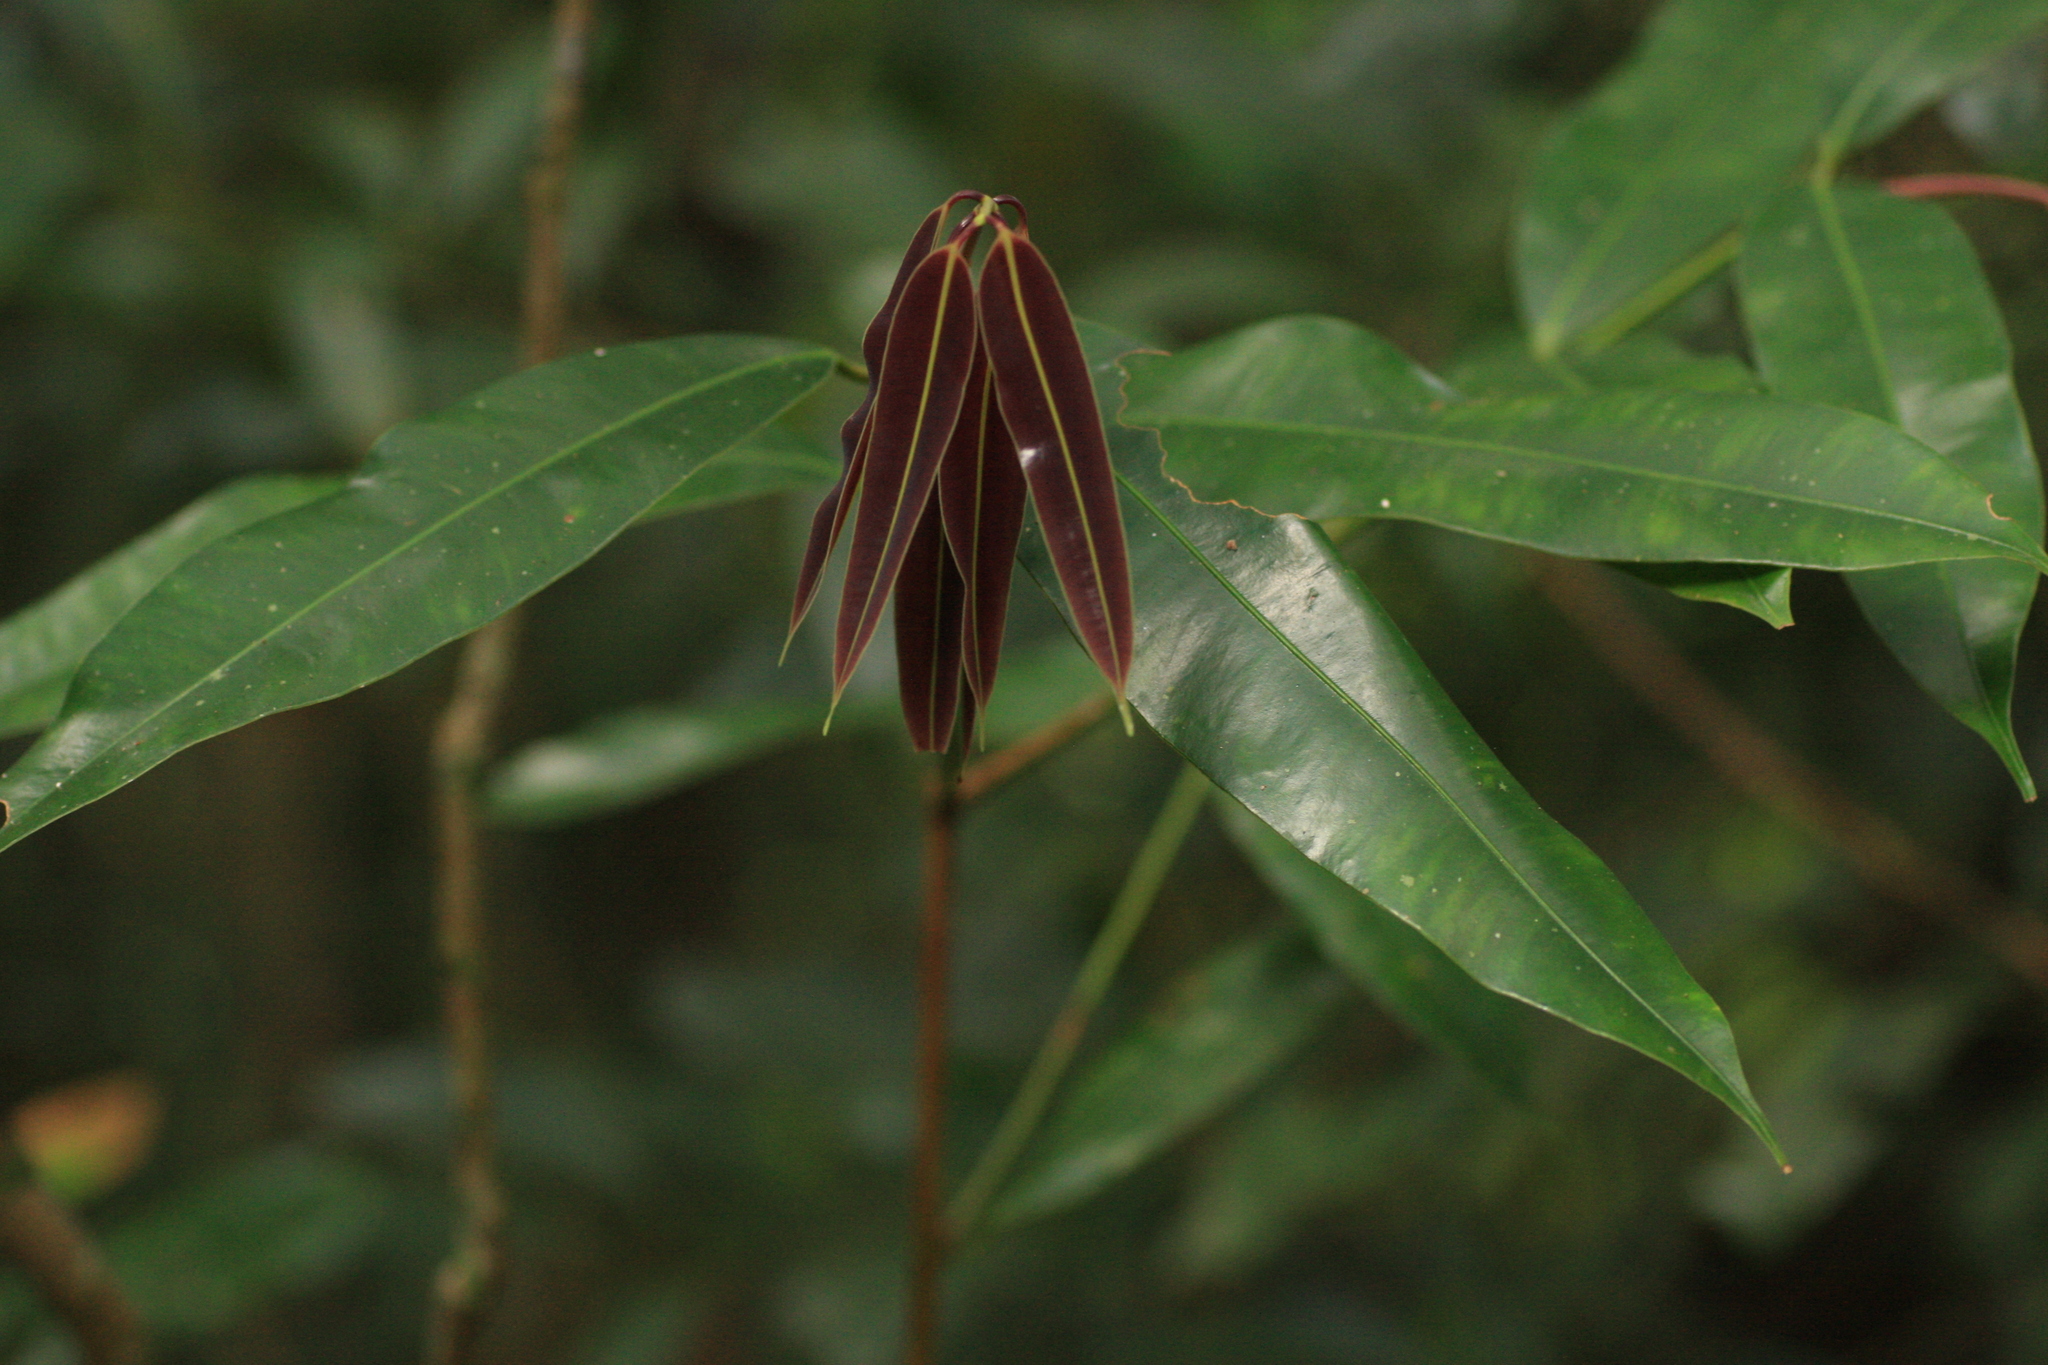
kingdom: Plantae
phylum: Tracheophyta
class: Magnoliopsida
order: Malpighiales
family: Calophyllaceae
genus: Mesua
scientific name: Mesua ferrea
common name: Mesua
